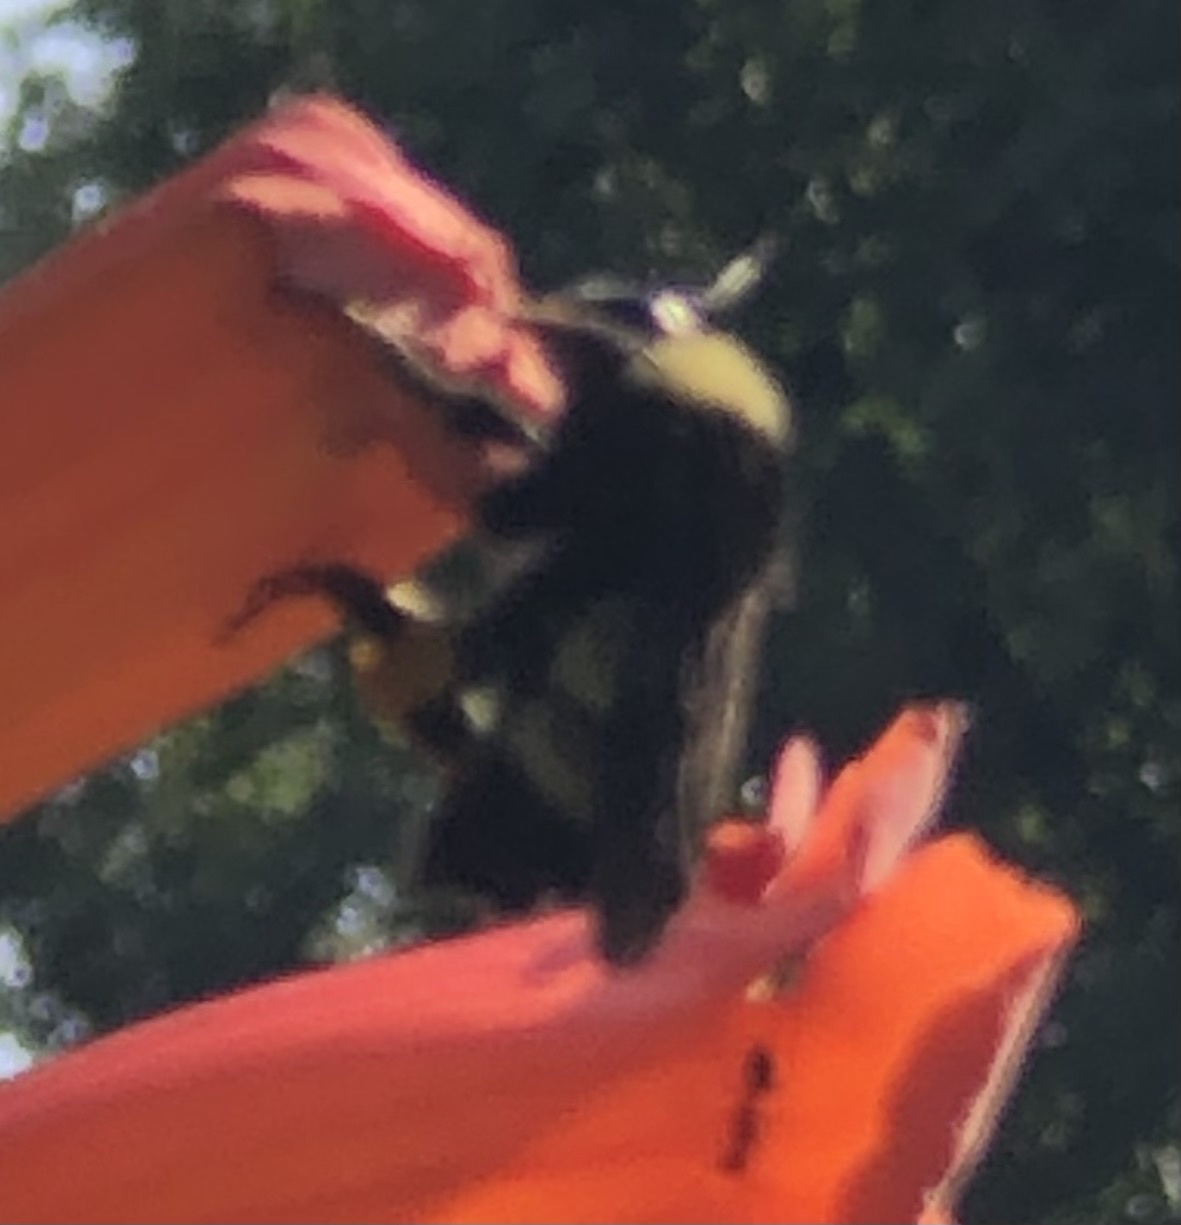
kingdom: Animalia
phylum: Arthropoda
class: Insecta
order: Hymenoptera
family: Apidae
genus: Bombus
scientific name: Bombus pensylvanicus
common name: Bumble bee
